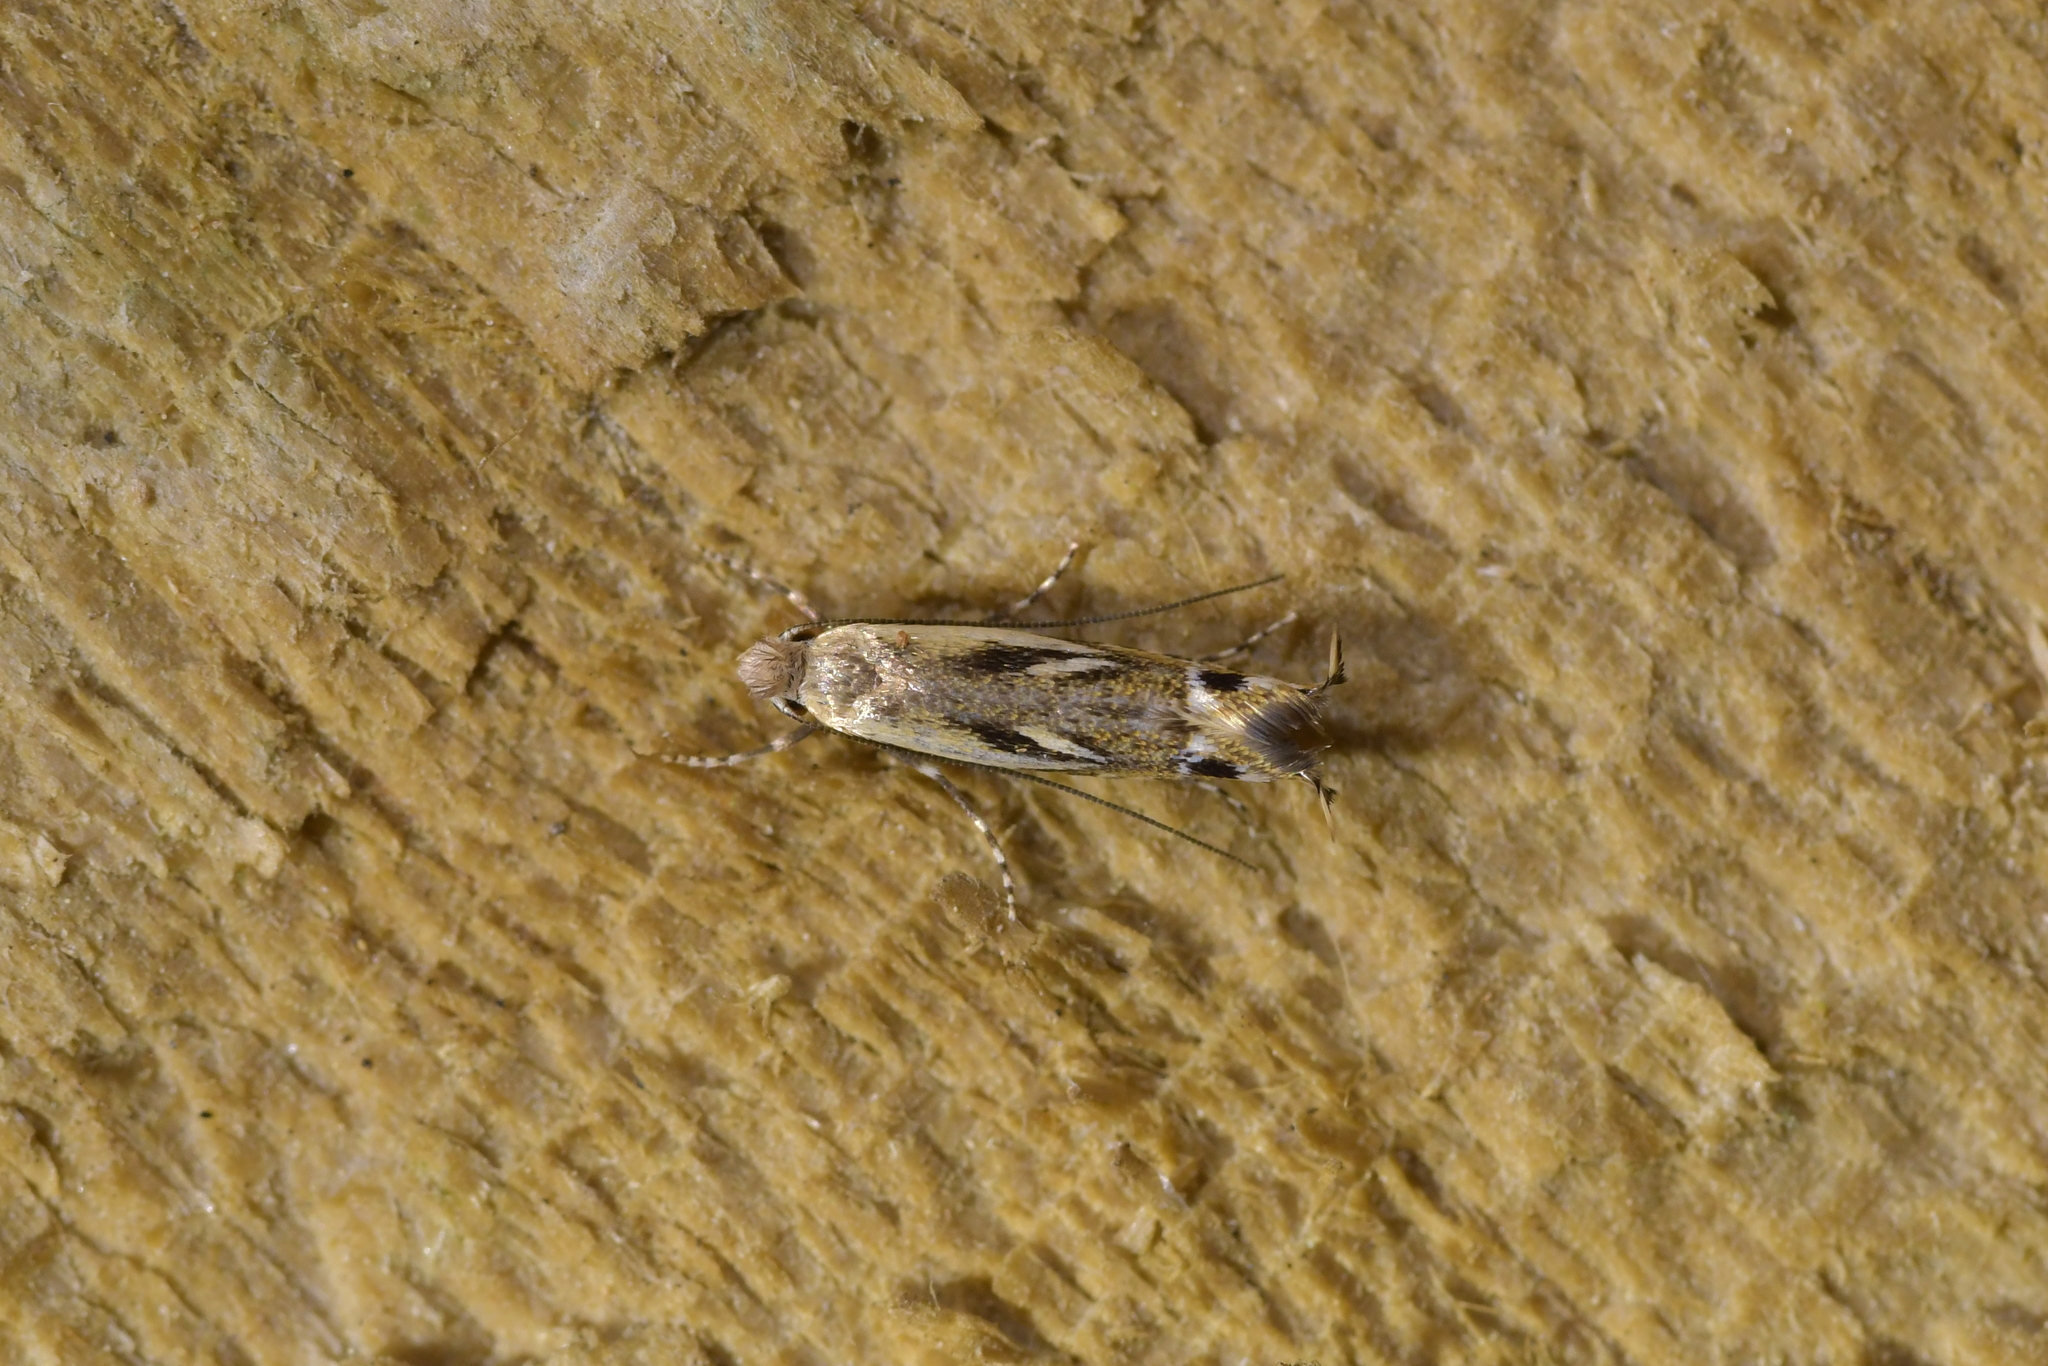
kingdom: Animalia
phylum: Arthropoda
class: Insecta
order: Lepidoptera
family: Tineidae
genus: Erechthias
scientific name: Erechthias decoranda
